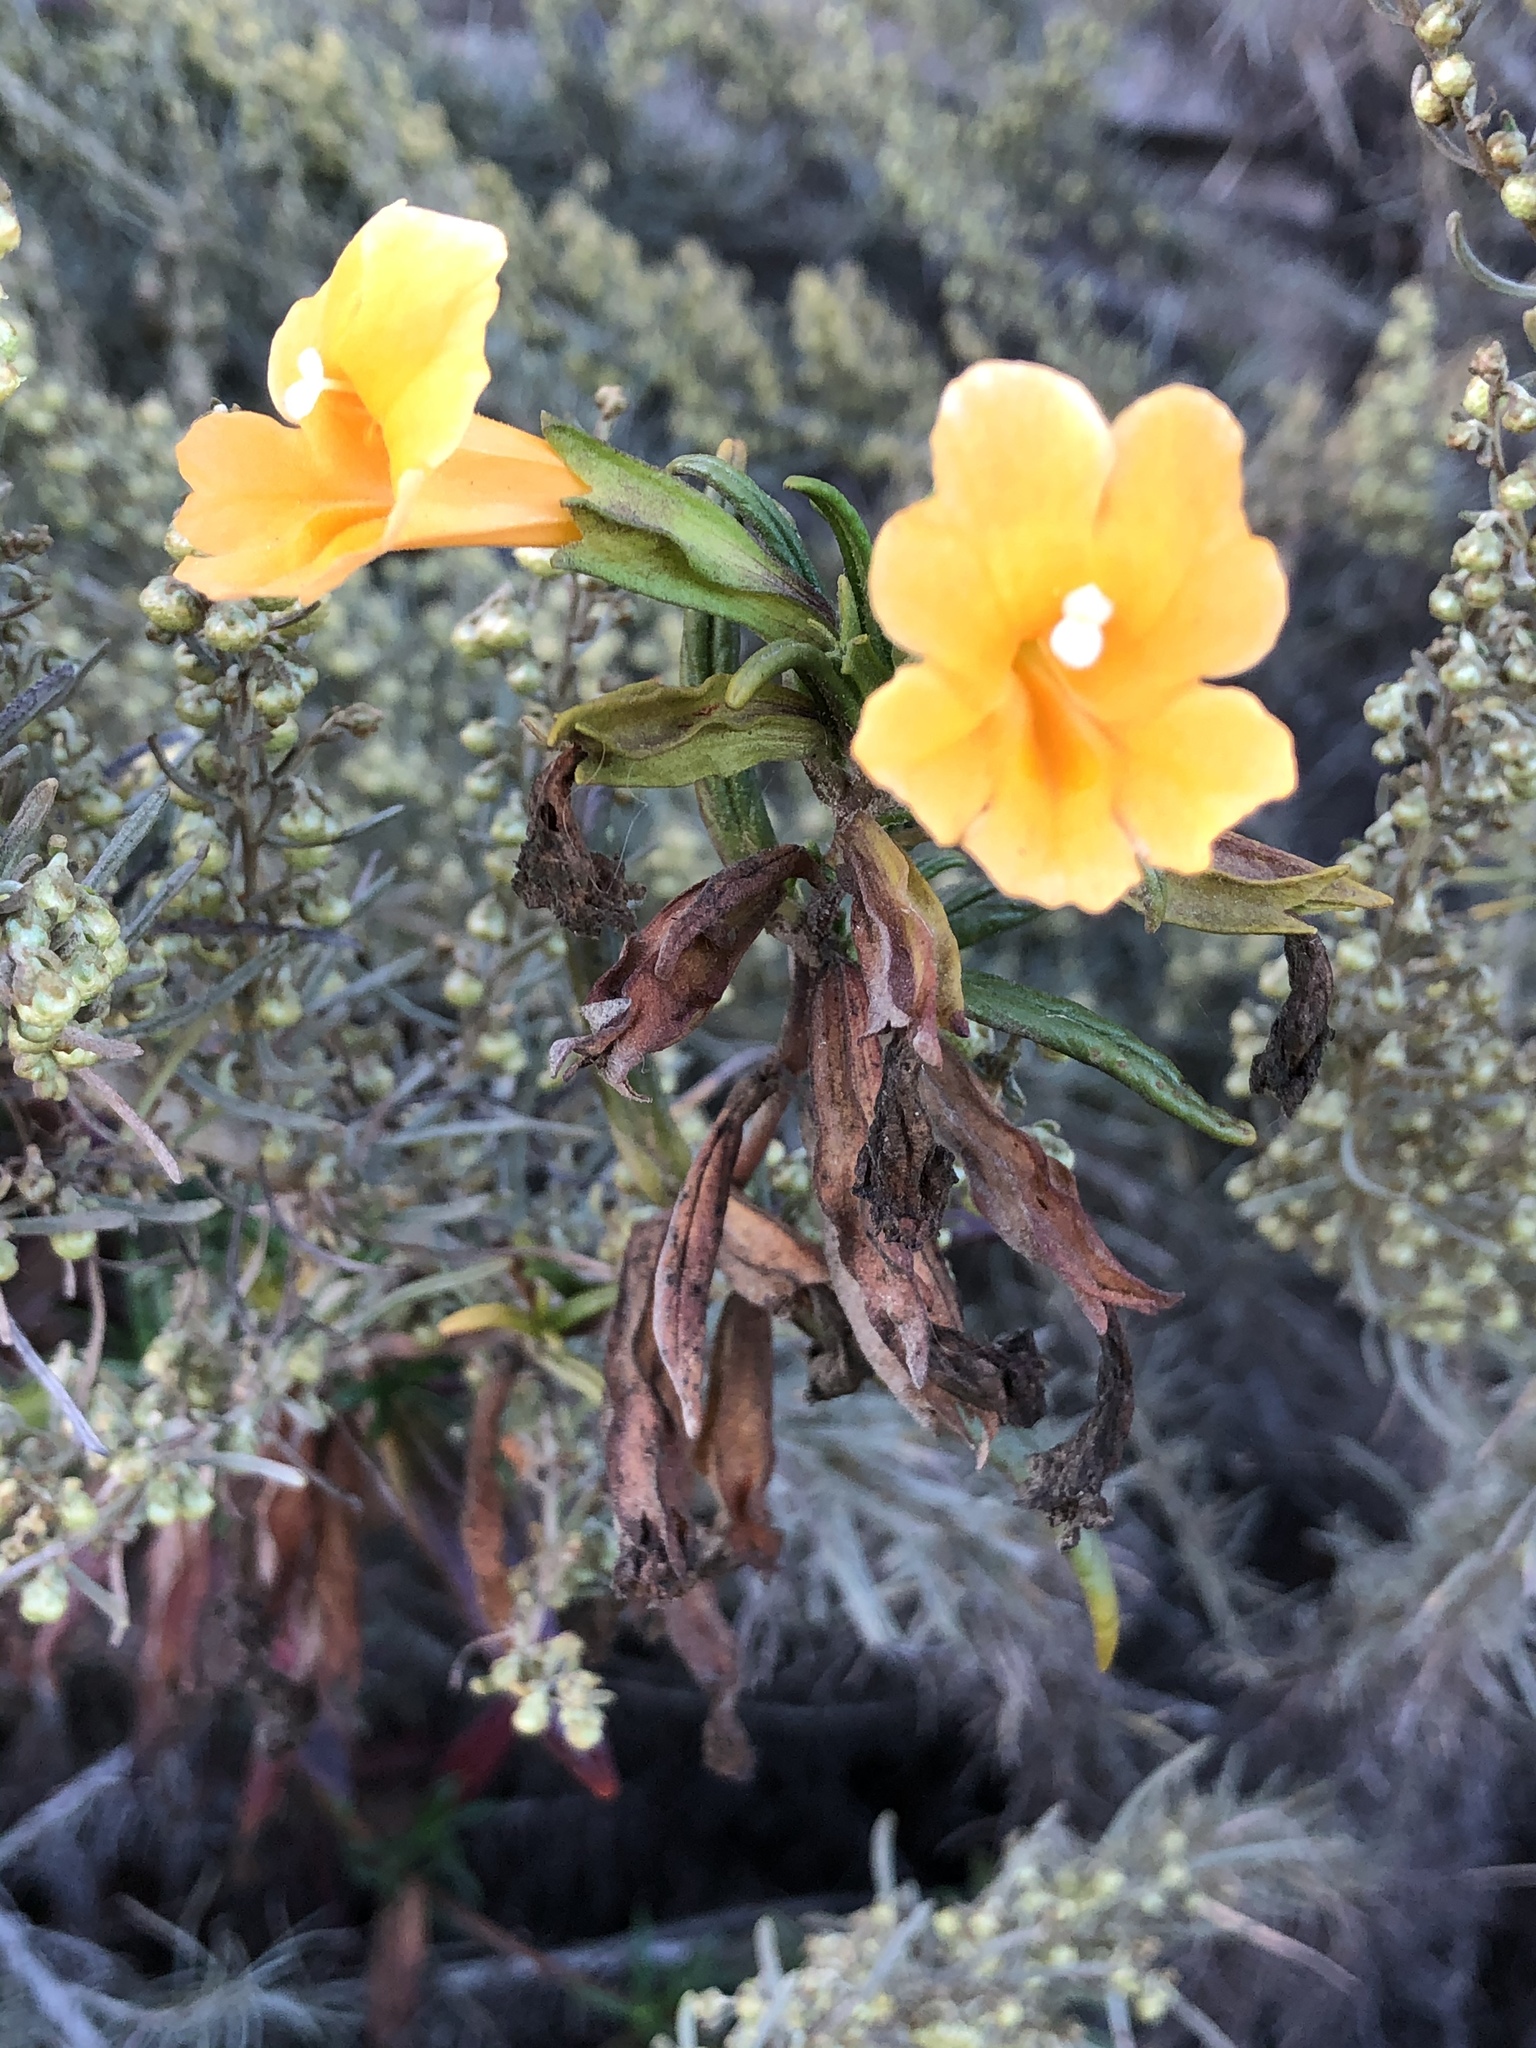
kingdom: Plantae
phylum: Tracheophyta
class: Magnoliopsida
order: Lamiales
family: Phrymaceae
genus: Diplacus
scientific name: Diplacus aurantiacus
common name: Bush monkey-flower
